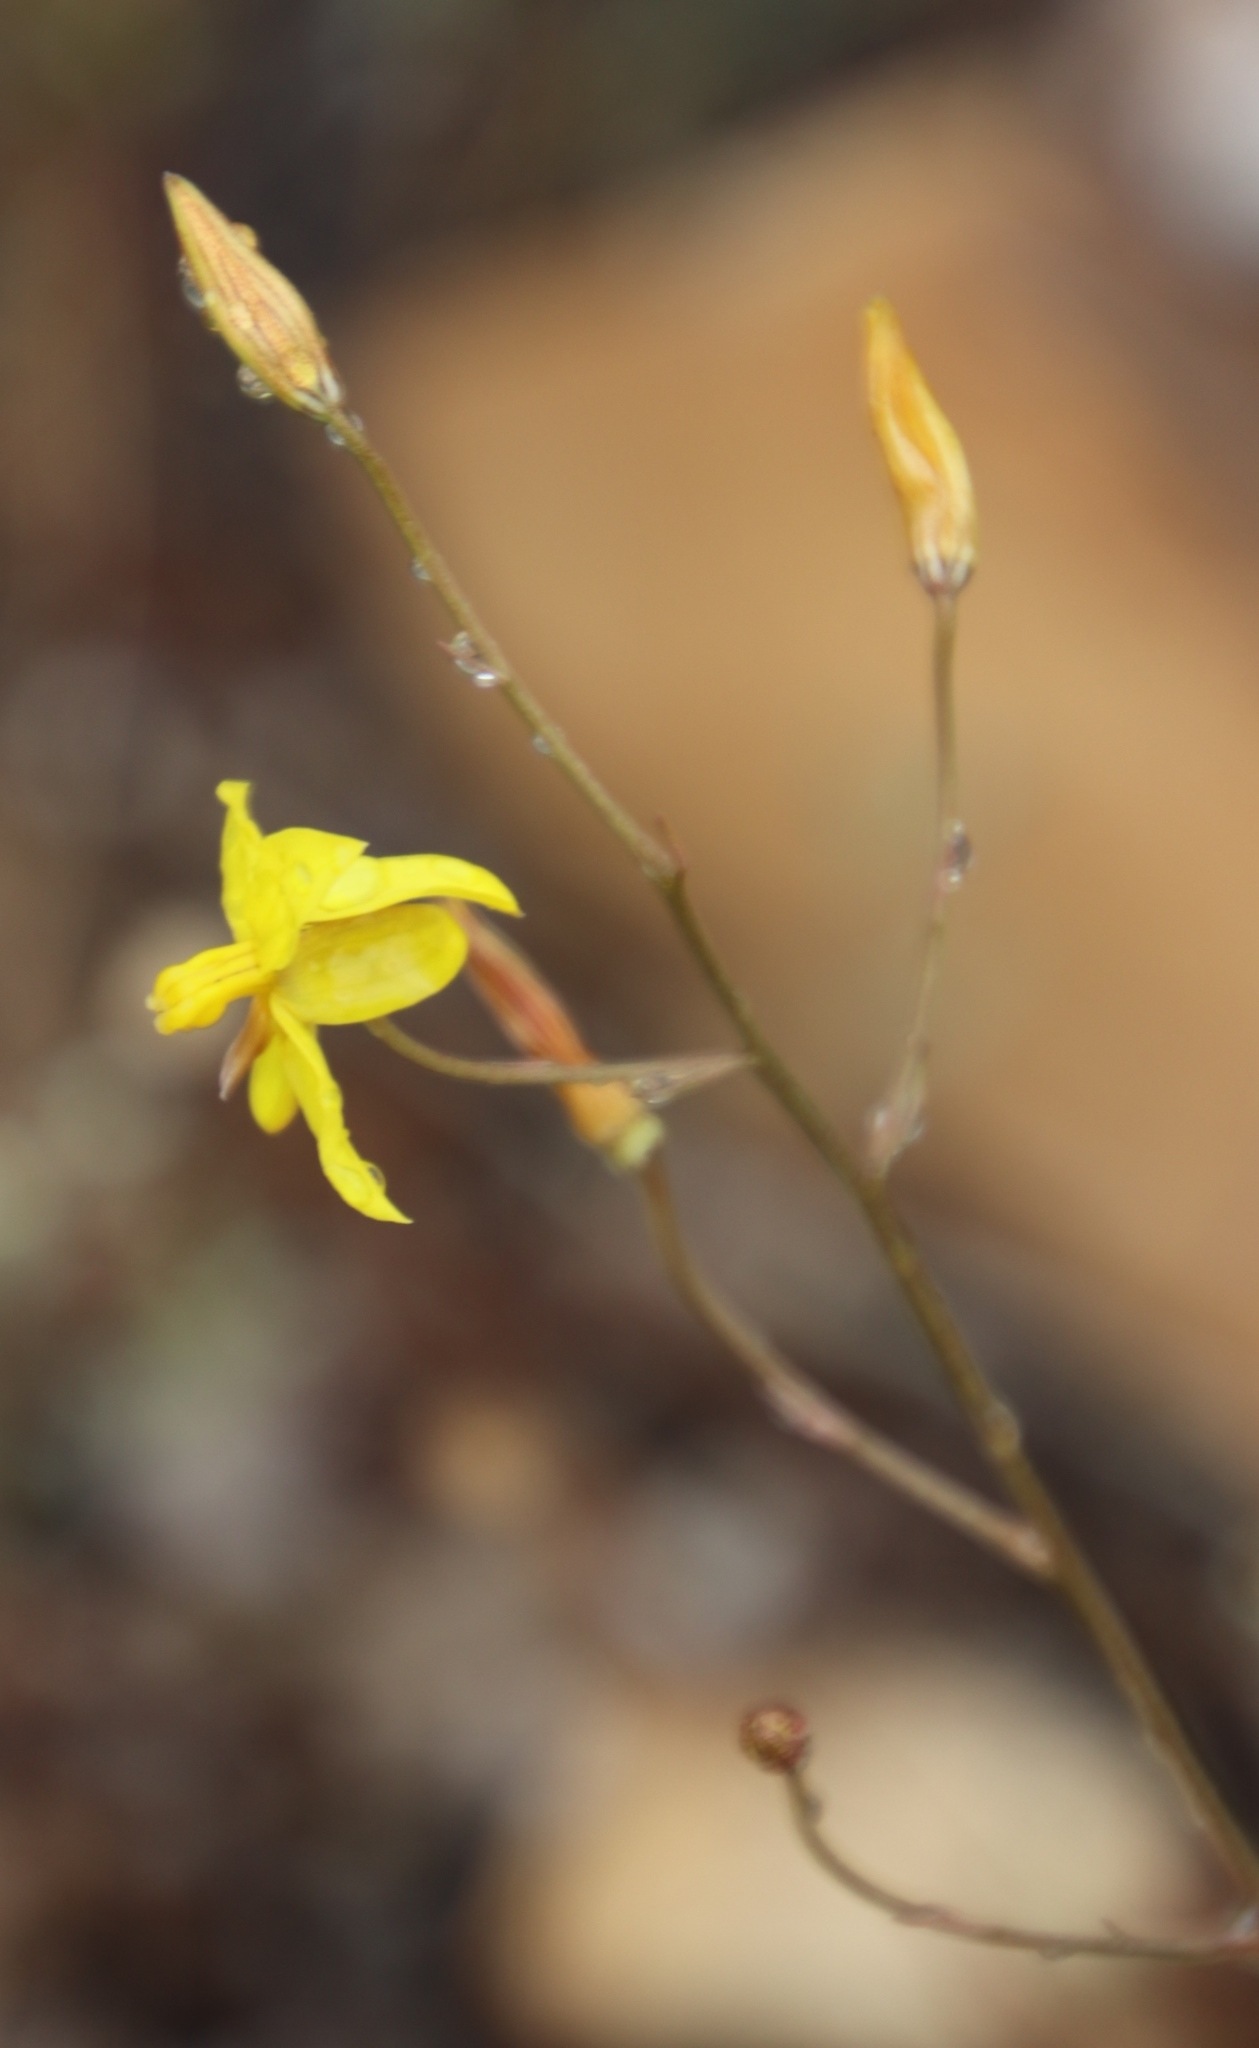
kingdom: Plantae
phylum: Tracheophyta
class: Liliopsida
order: Asparagales
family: Tecophilaeaceae
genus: Cyanella
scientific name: Cyanella lutea
